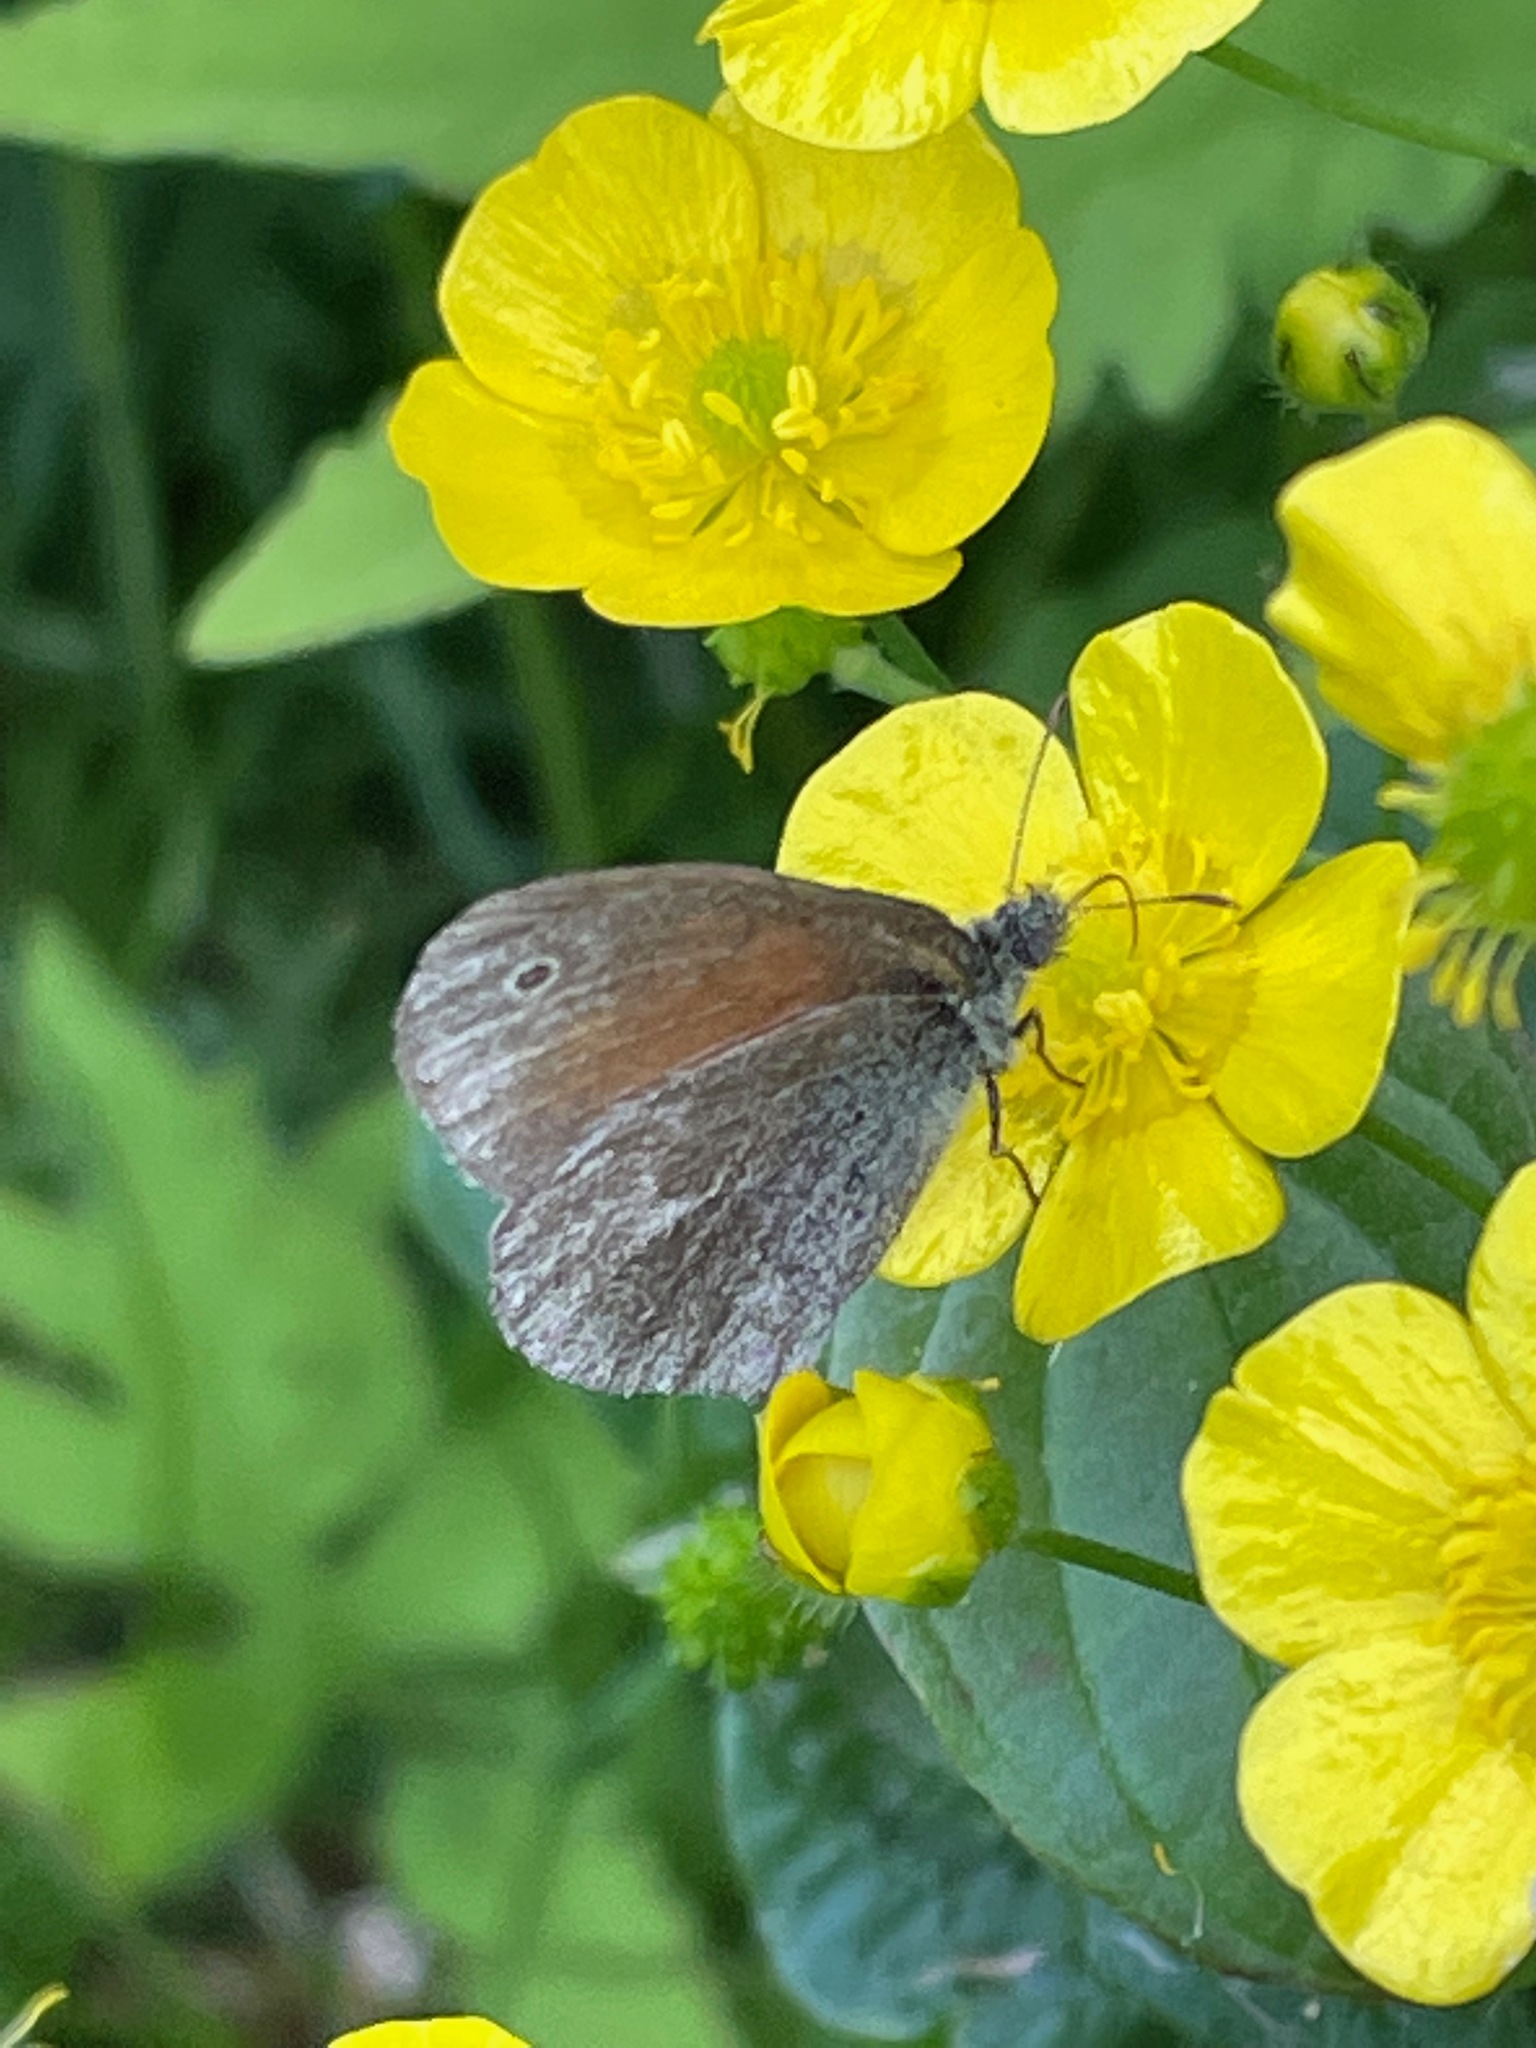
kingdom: Animalia
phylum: Arthropoda
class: Insecta
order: Lepidoptera
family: Nymphalidae
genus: Coenonympha
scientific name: Coenonympha california
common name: Common ringlet
